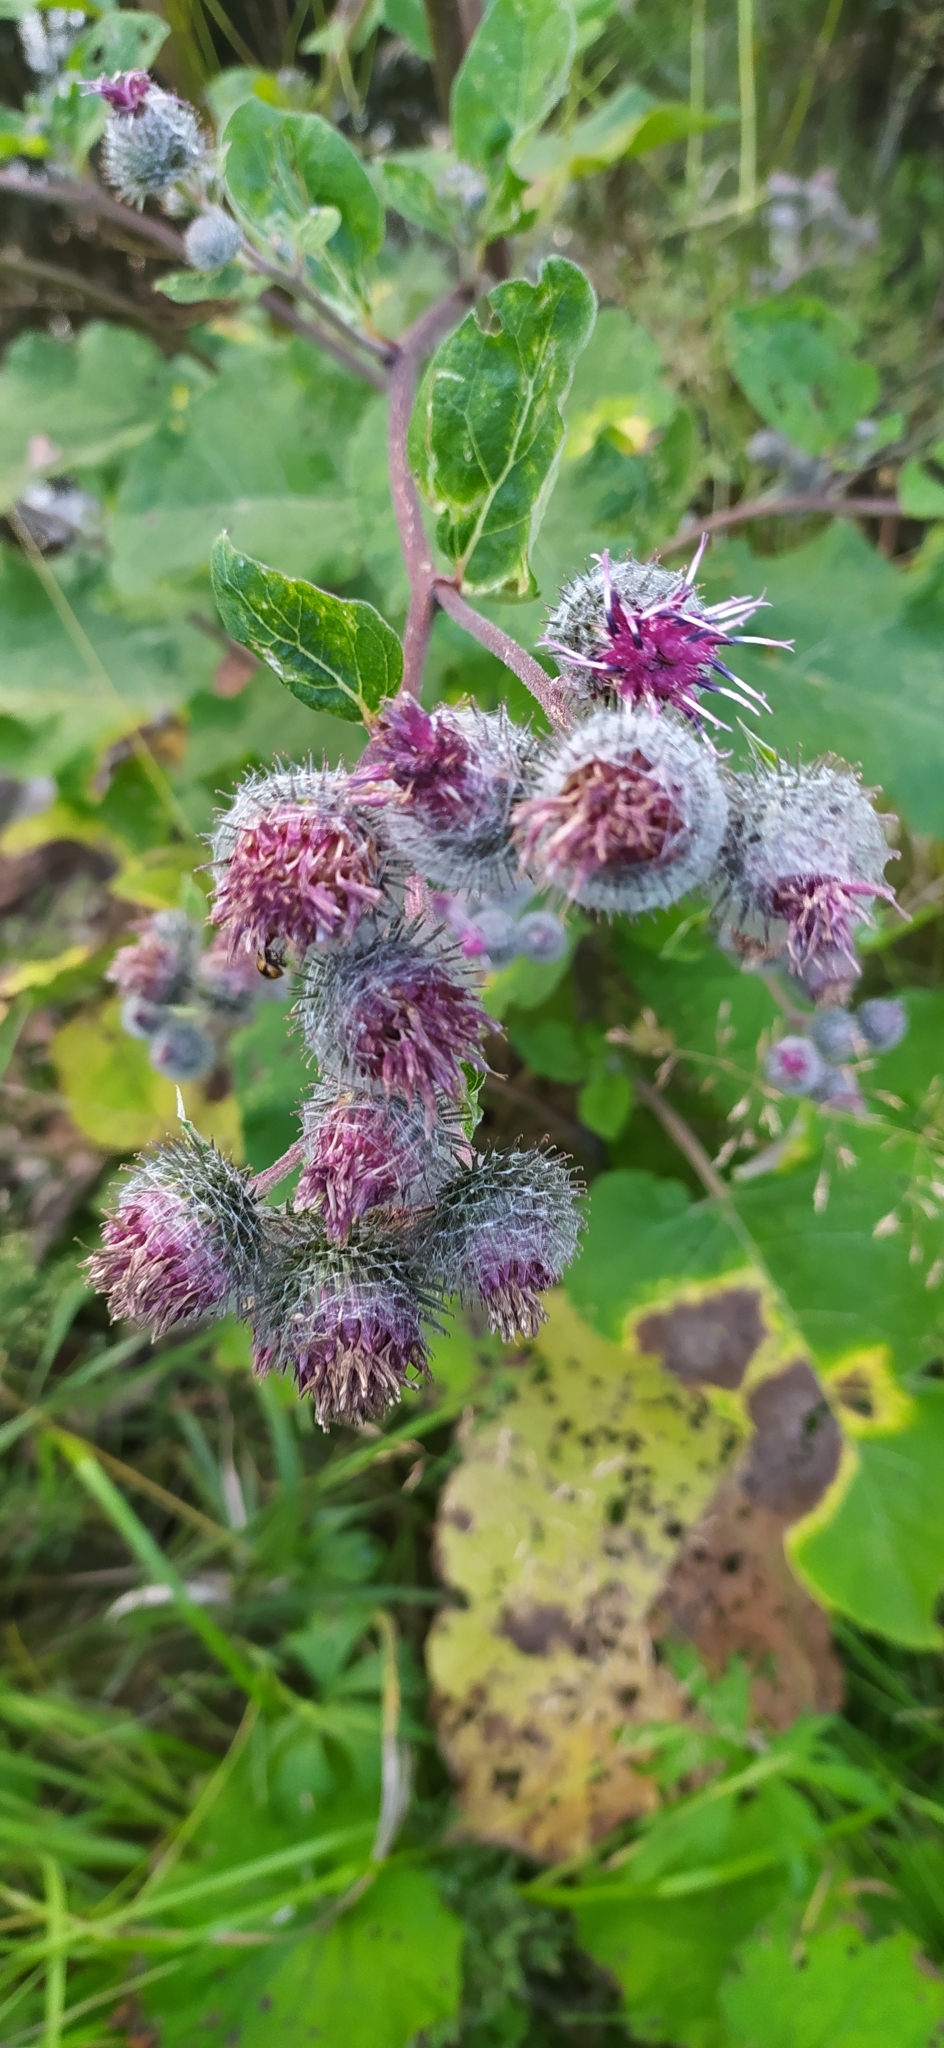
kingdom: Plantae
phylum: Tracheophyta
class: Magnoliopsida
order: Asterales
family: Asteraceae
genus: Arctium
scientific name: Arctium tomentosum
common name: Woolly burdock
